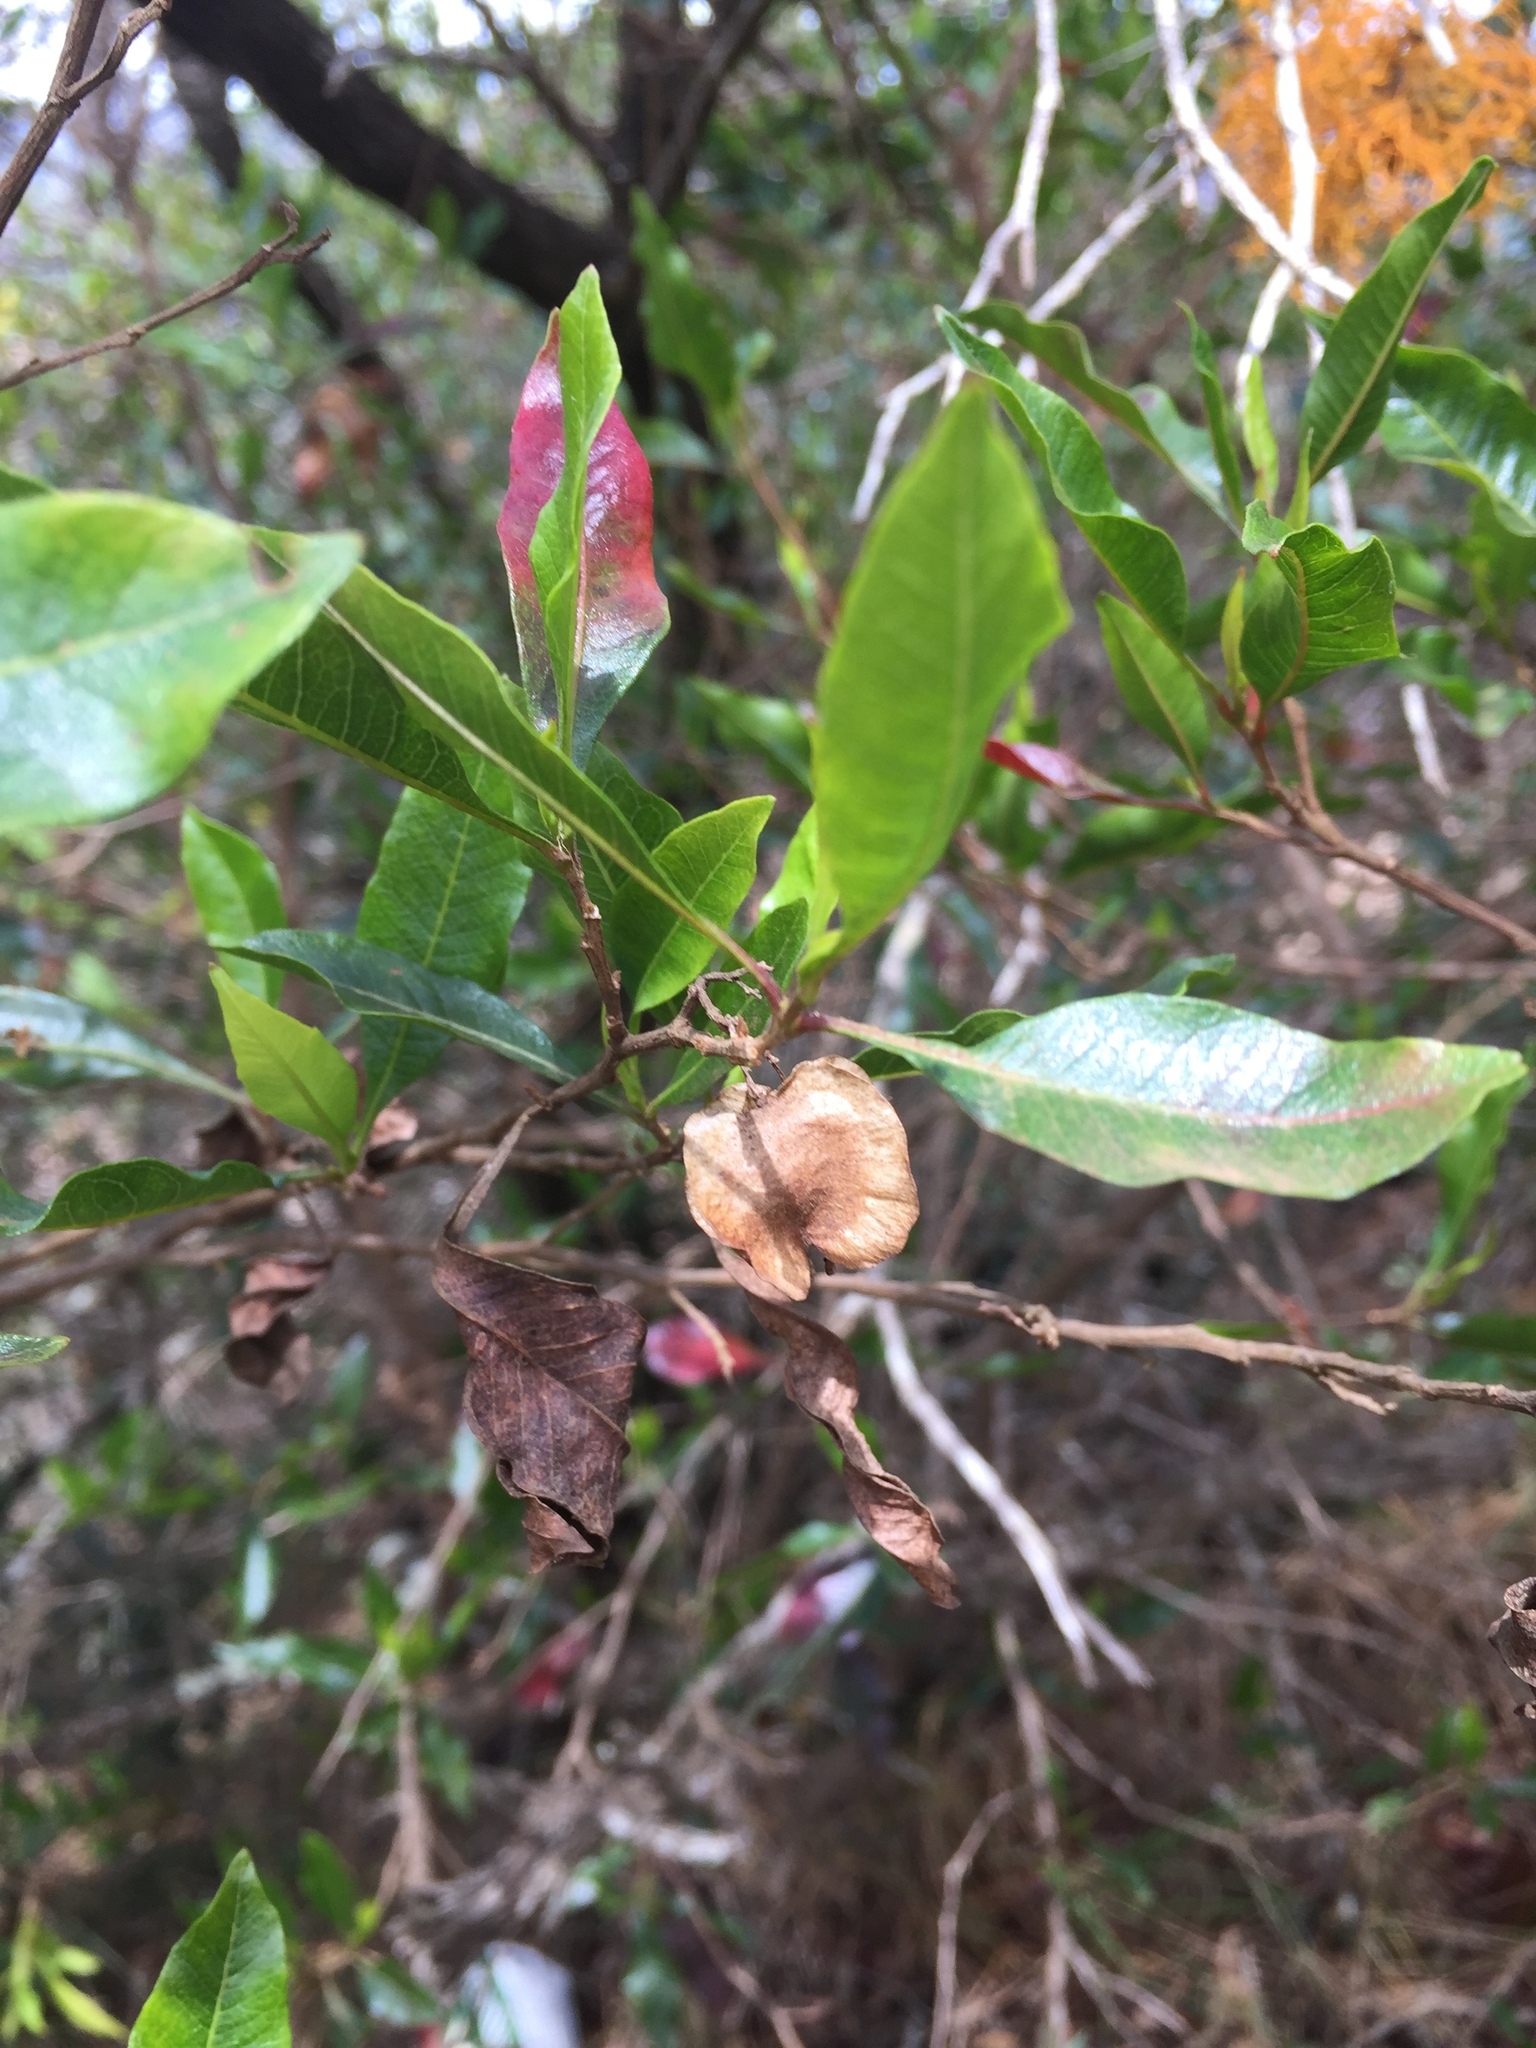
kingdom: Plantae
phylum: Tracheophyta
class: Magnoliopsida
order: Sapindales
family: Sapindaceae
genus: Dodonaea
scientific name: Dodonaea viscosa
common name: Hopbush
